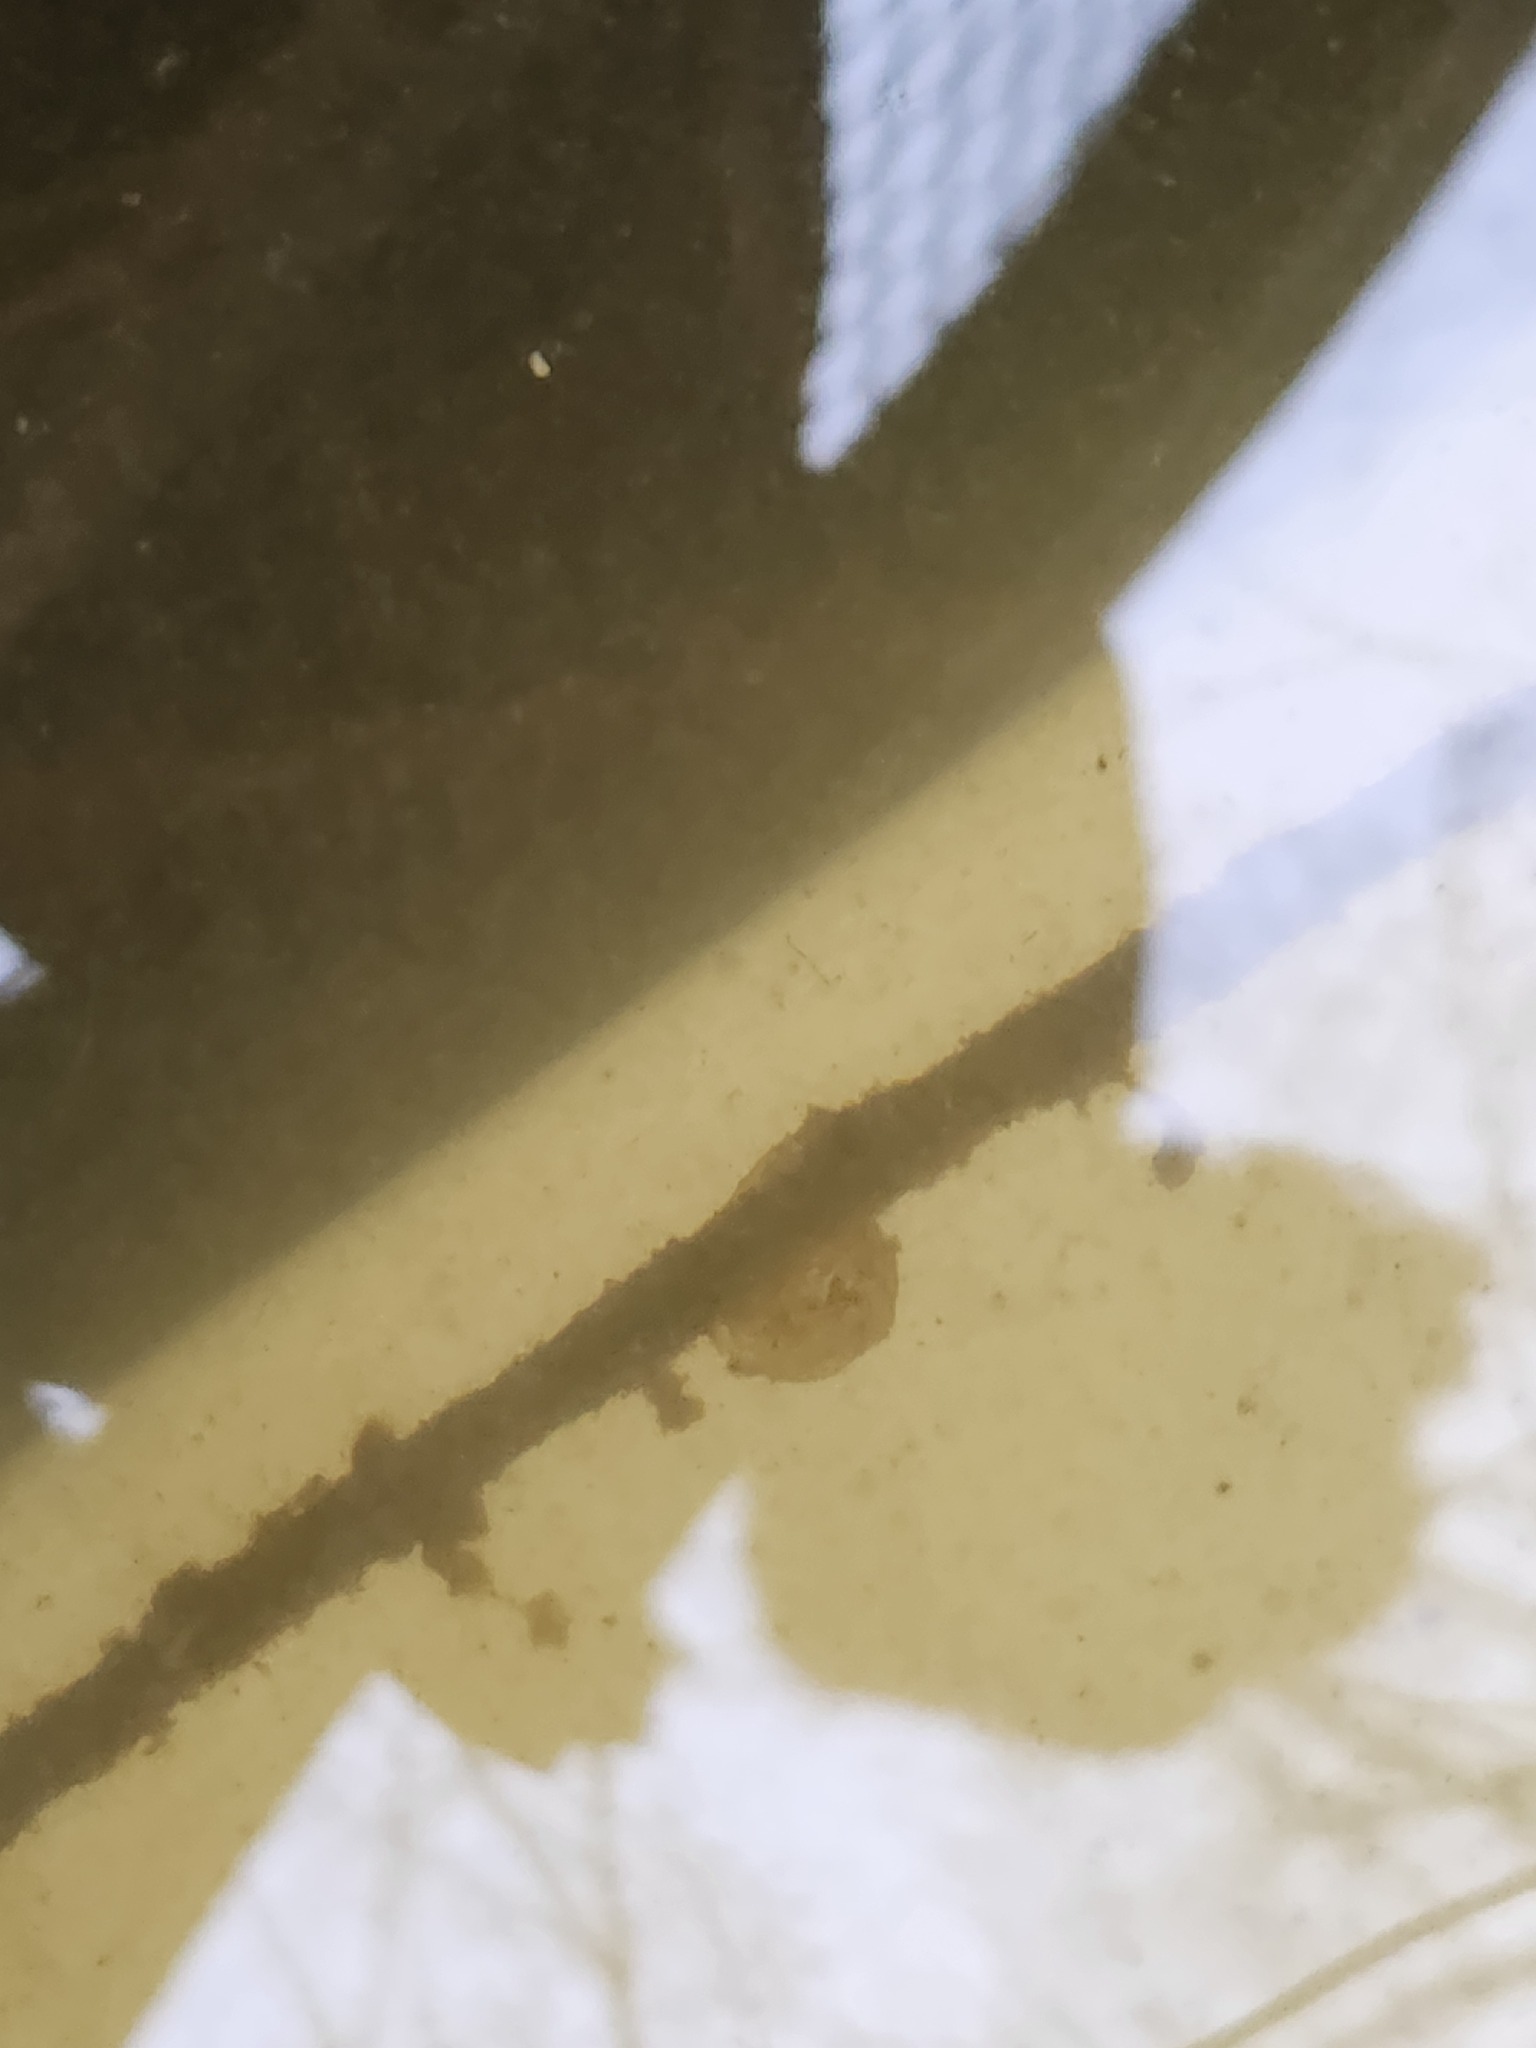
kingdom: Animalia
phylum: Chordata
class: Amphibia
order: Caudata
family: Ambystomatidae
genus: Ambystoma
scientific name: Ambystoma macrodactylum
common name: Long-toed salamander
